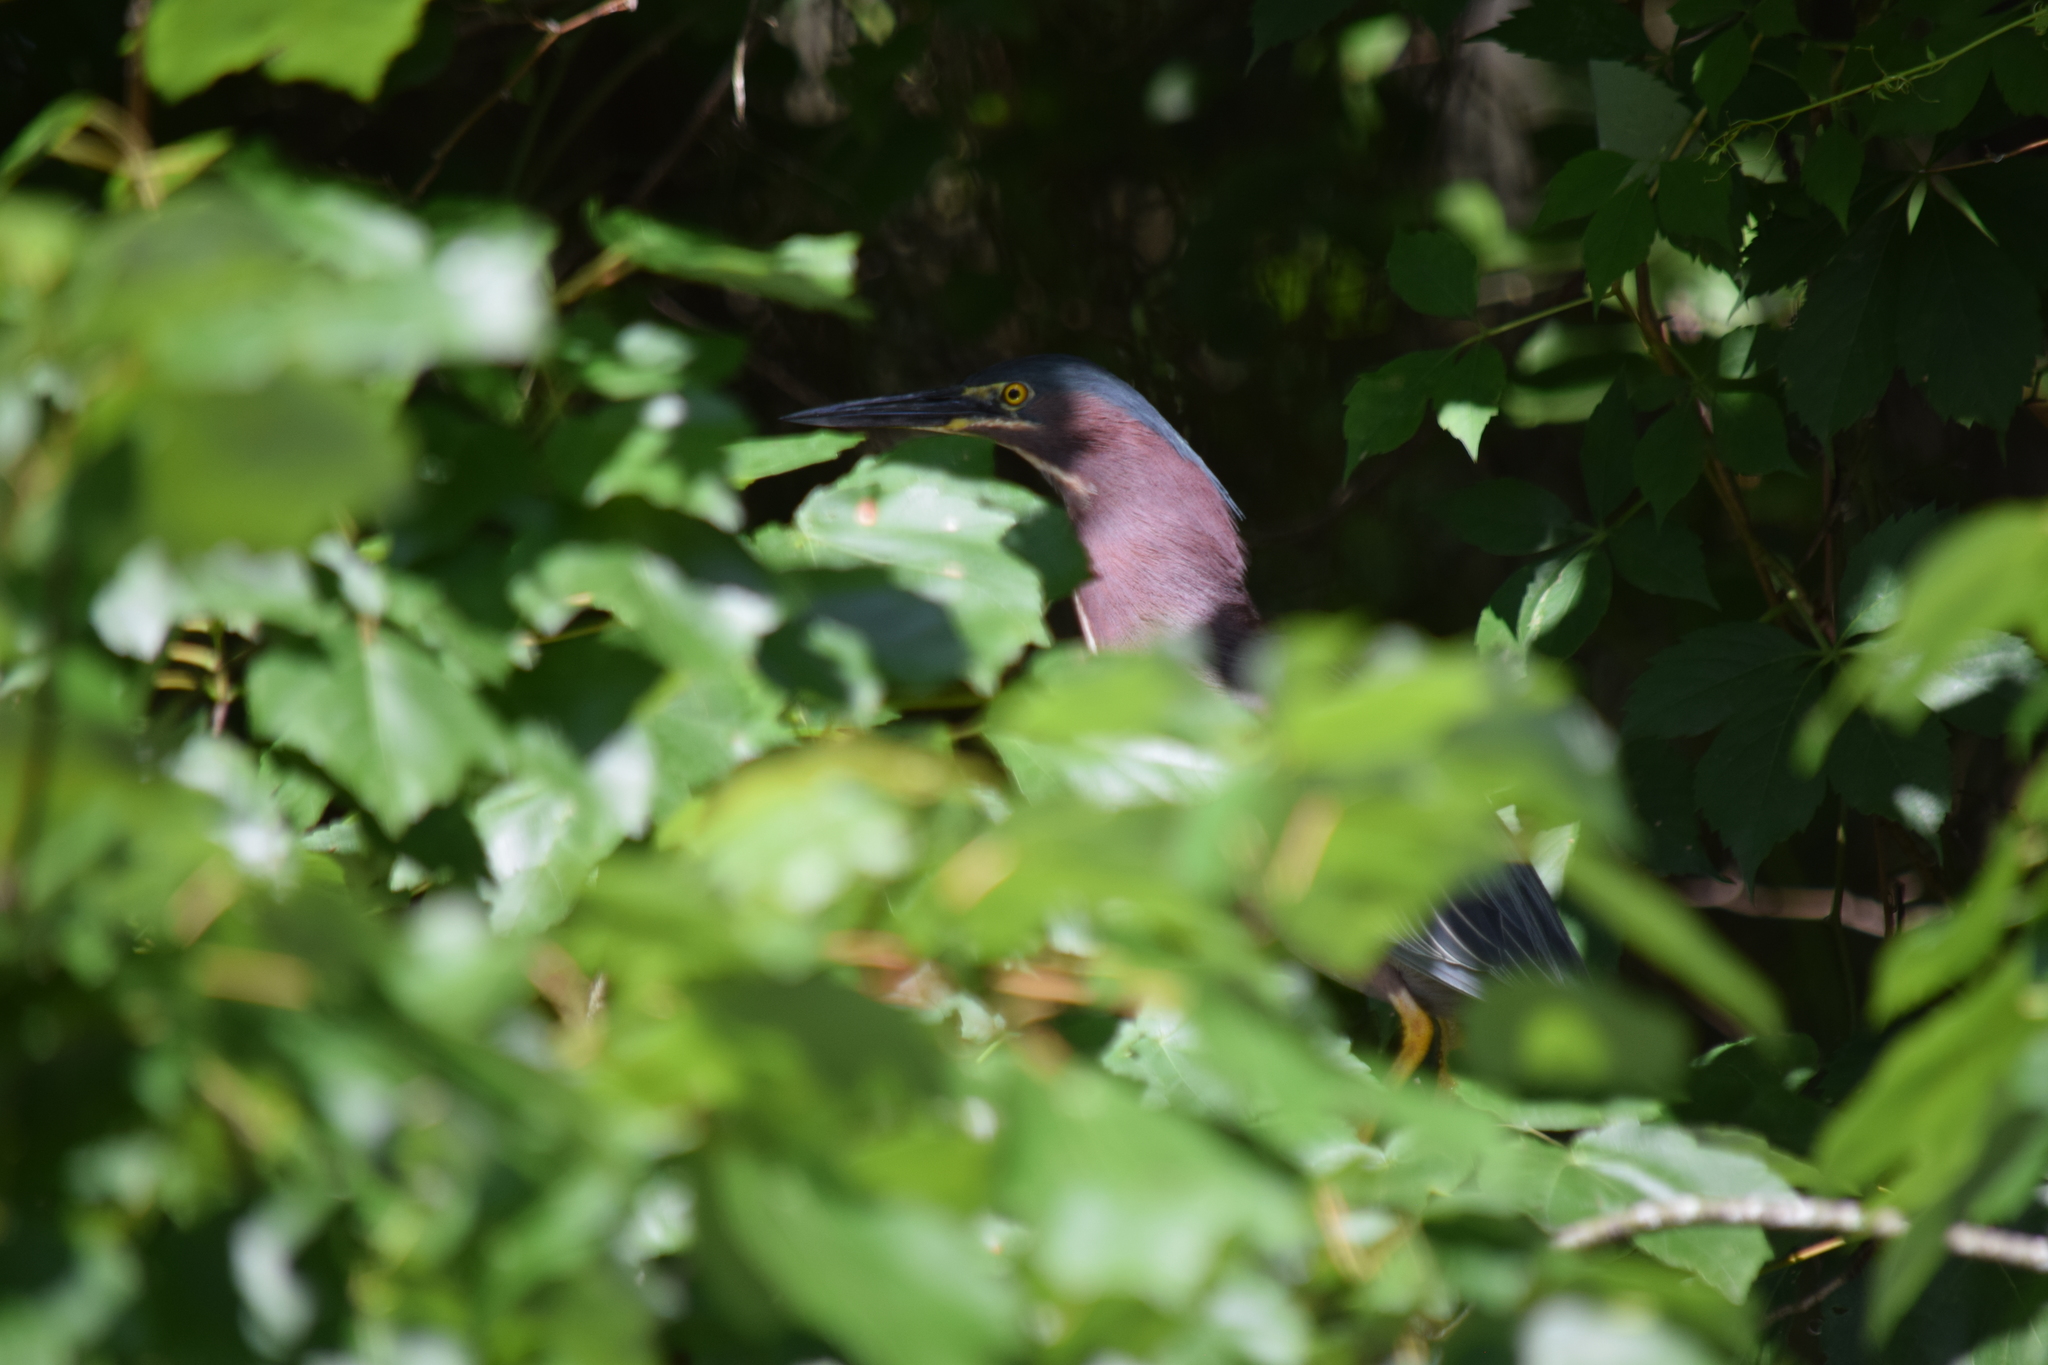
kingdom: Animalia
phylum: Chordata
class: Aves
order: Pelecaniformes
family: Ardeidae
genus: Butorides
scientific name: Butorides virescens
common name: Green heron
